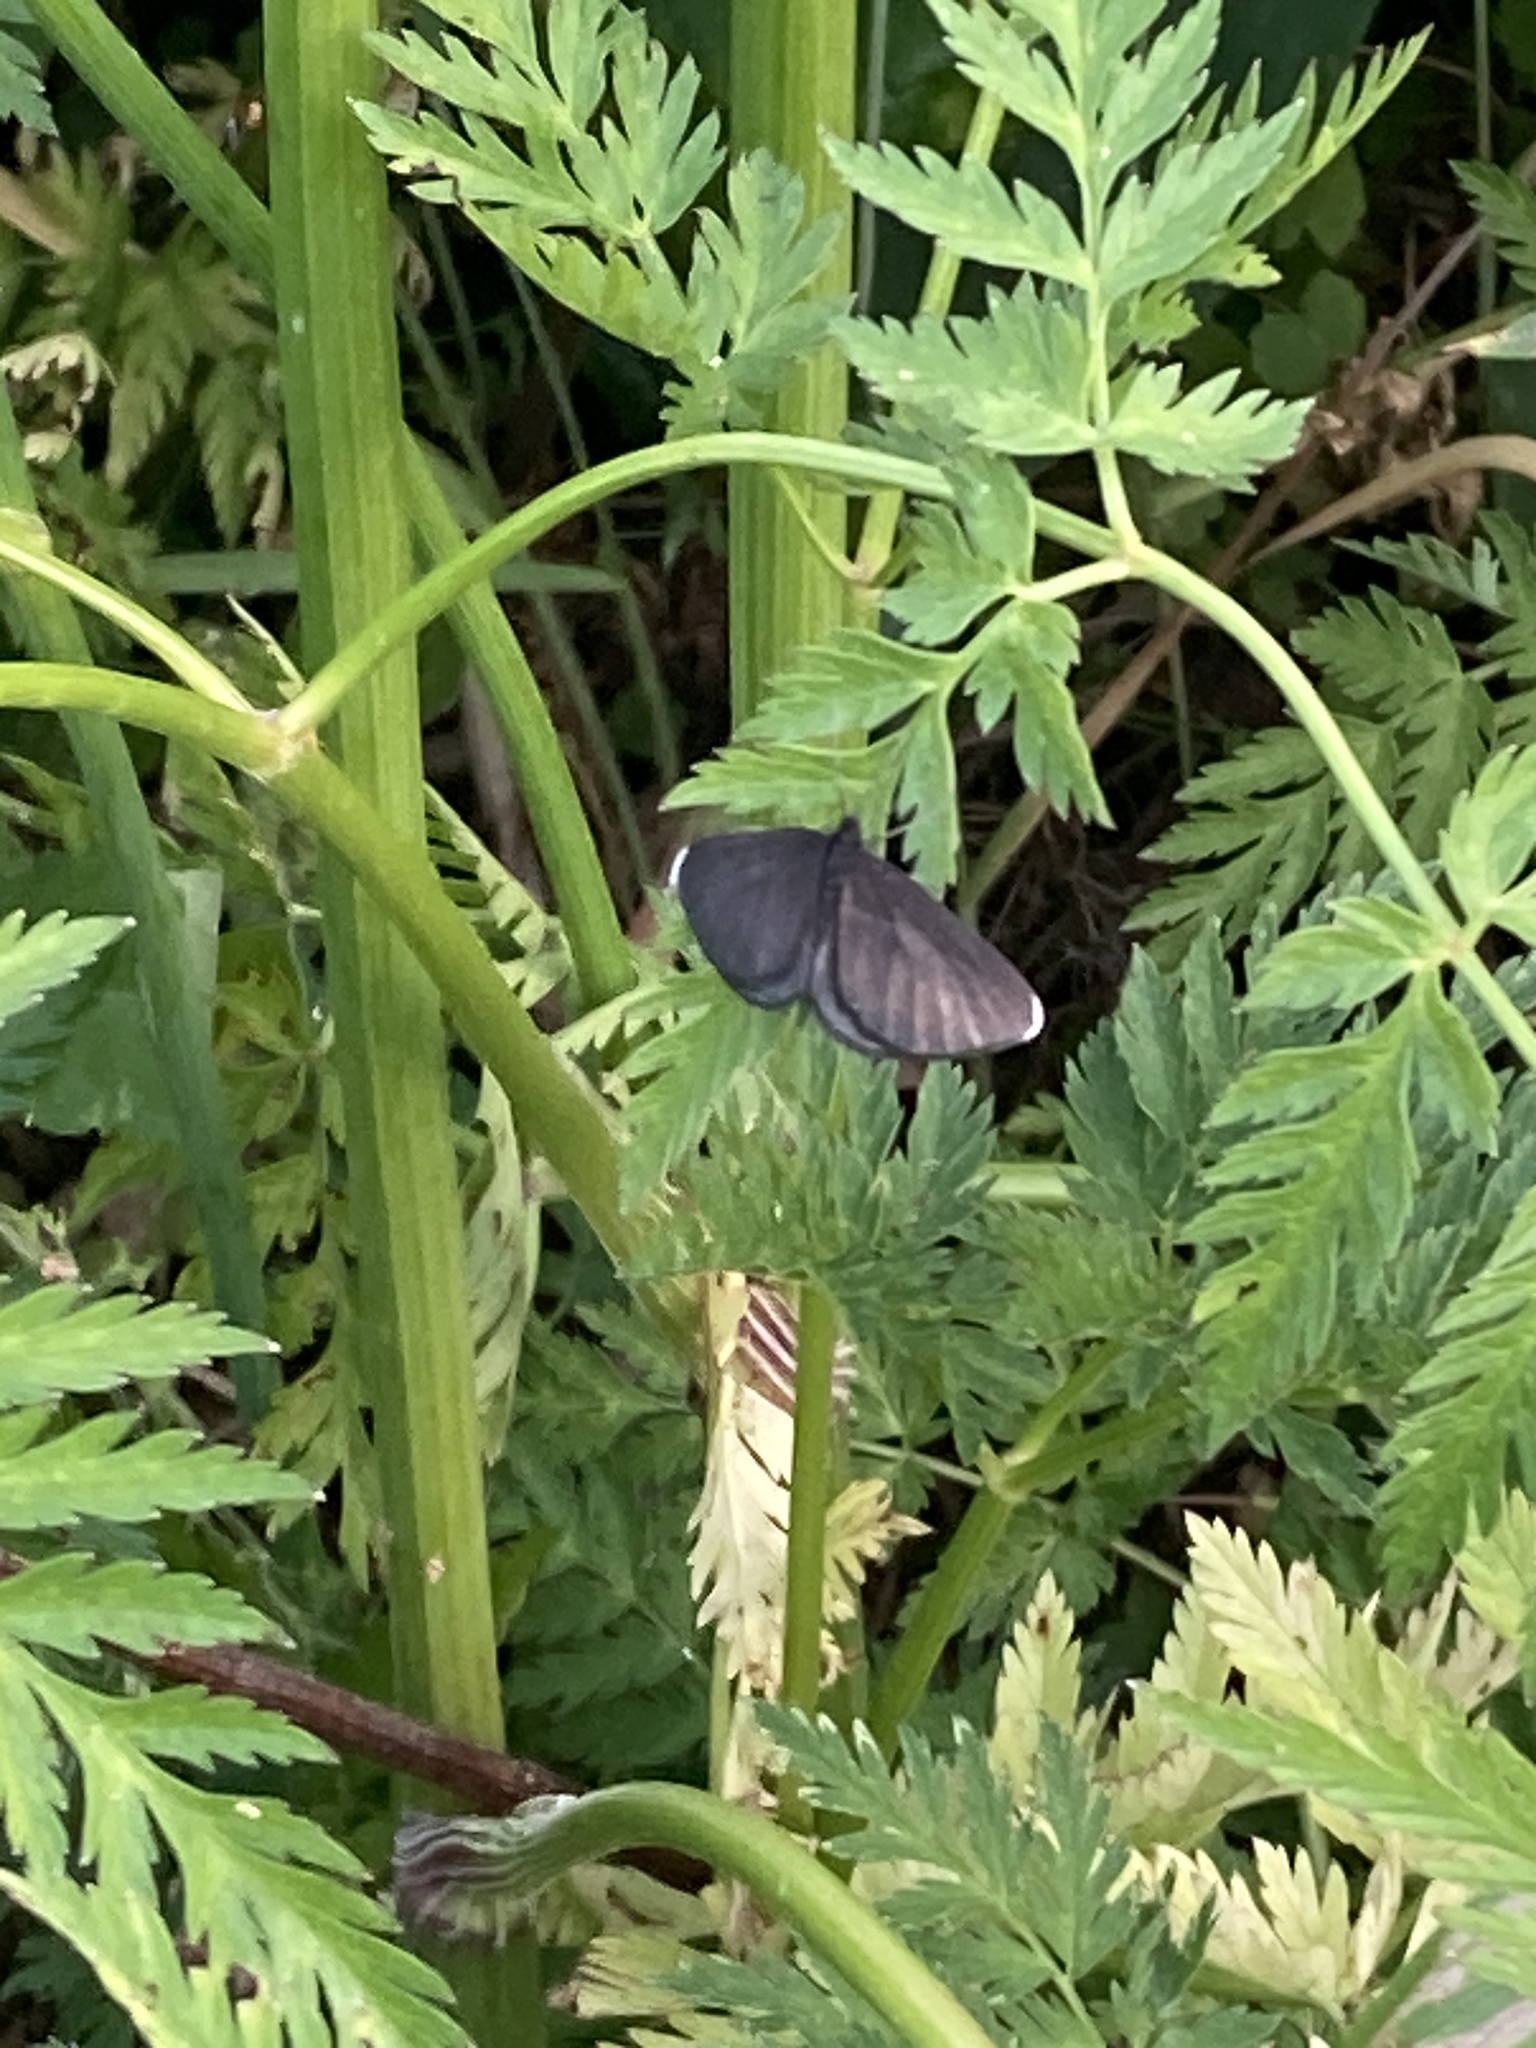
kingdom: Animalia
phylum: Arthropoda
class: Insecta
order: Lepidoptera
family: Geometridae
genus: Odezia
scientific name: Odezia atrata
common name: Chimney sweeper
